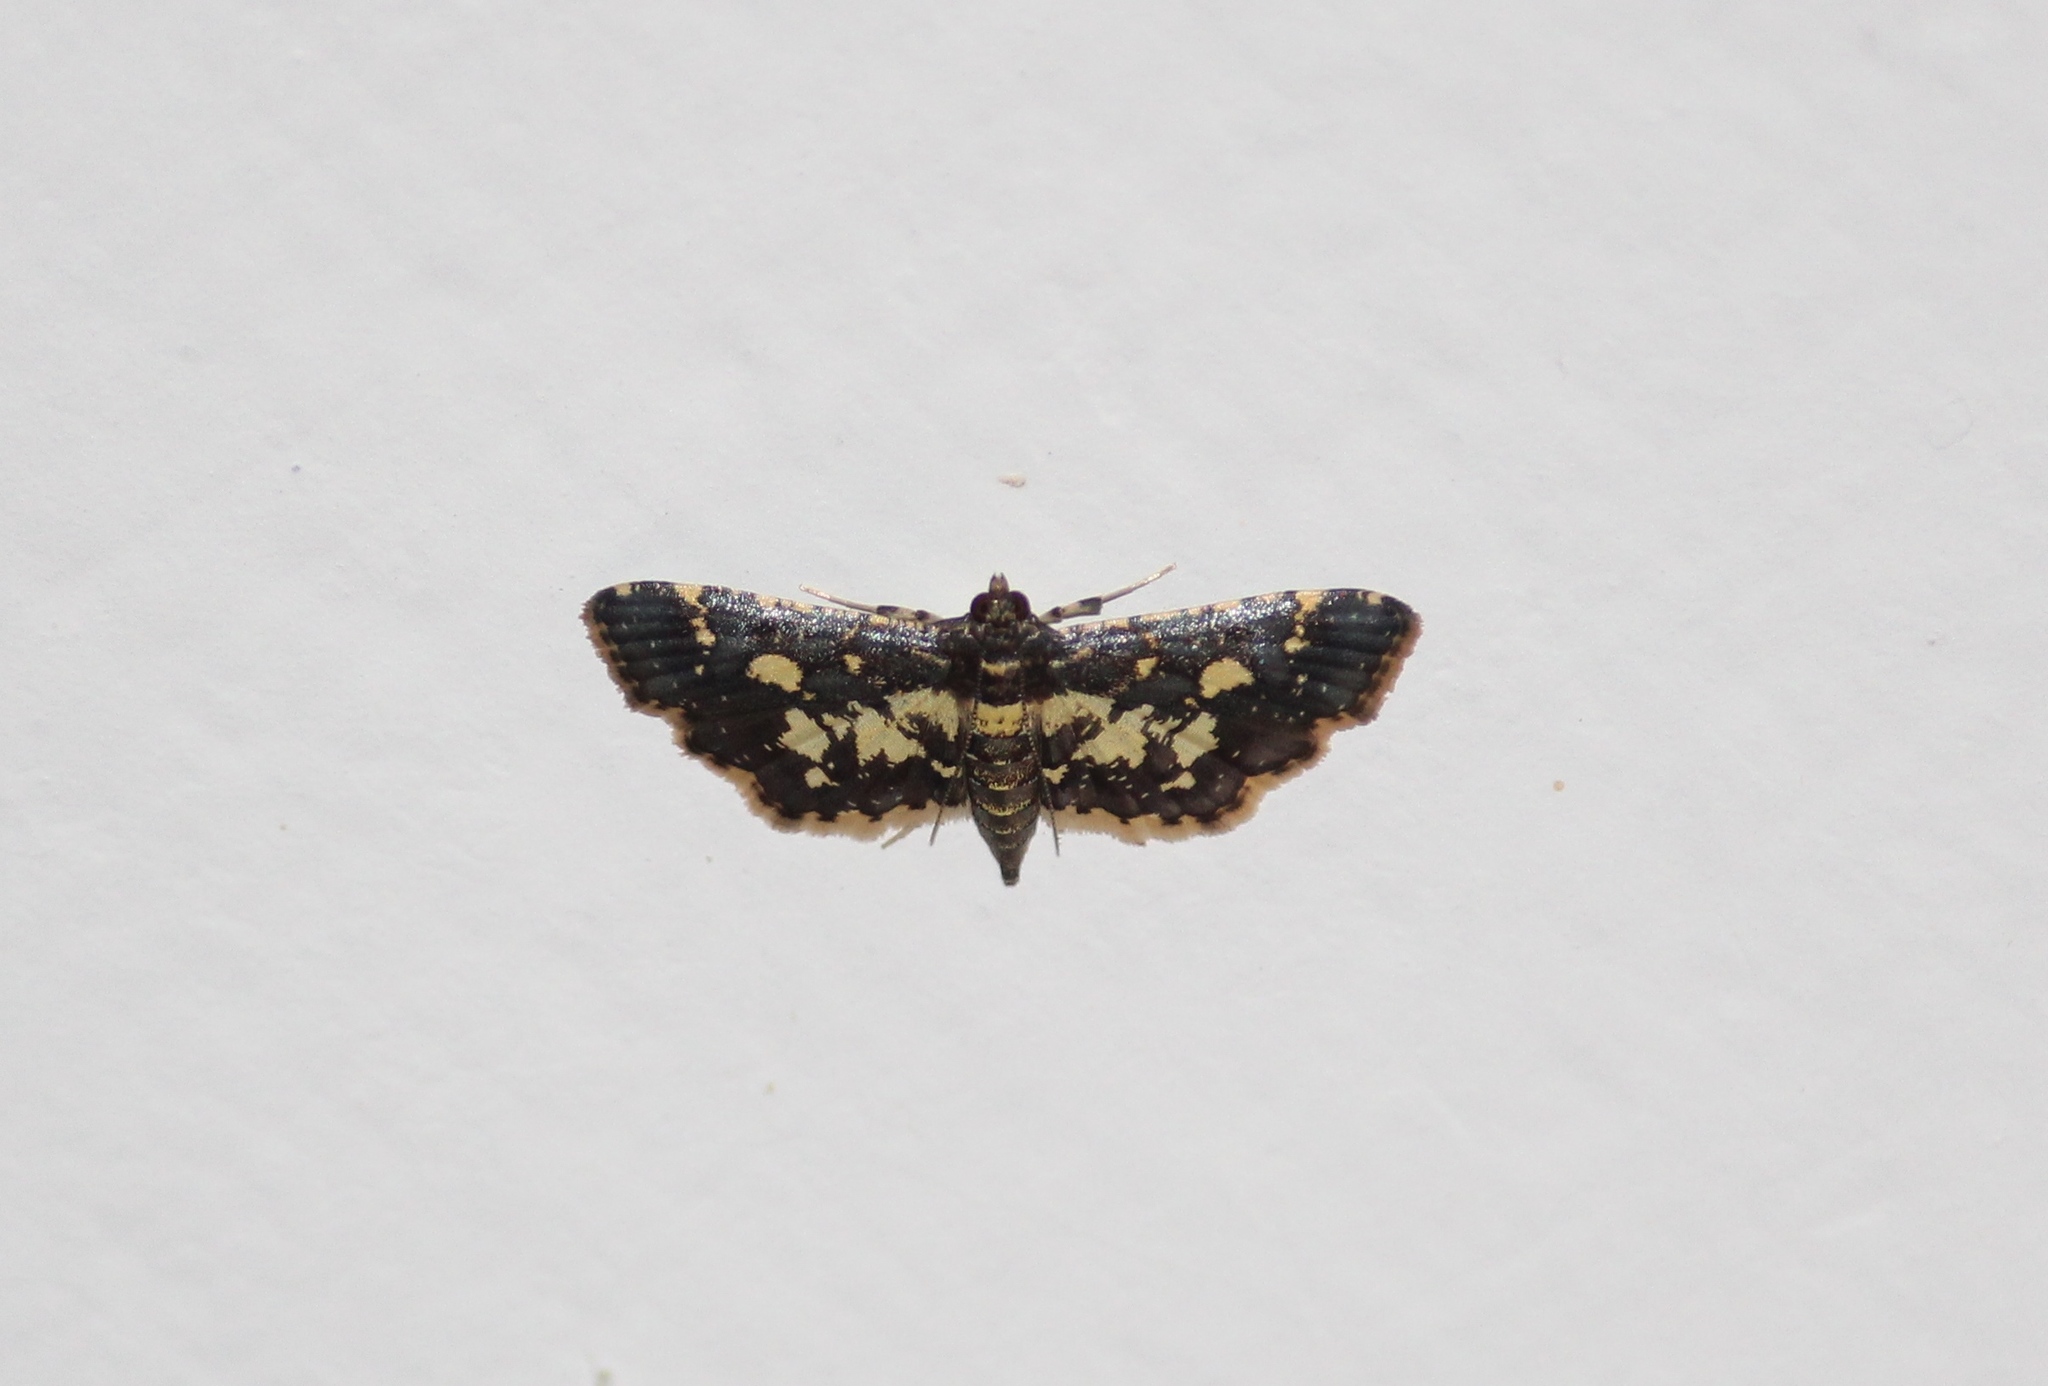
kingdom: Animalia
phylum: Arthropoda
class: Insecta
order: Lepidoptera
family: Crambidae
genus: Eurrhyparodes
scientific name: Eurrhyparodes bracteolalis
